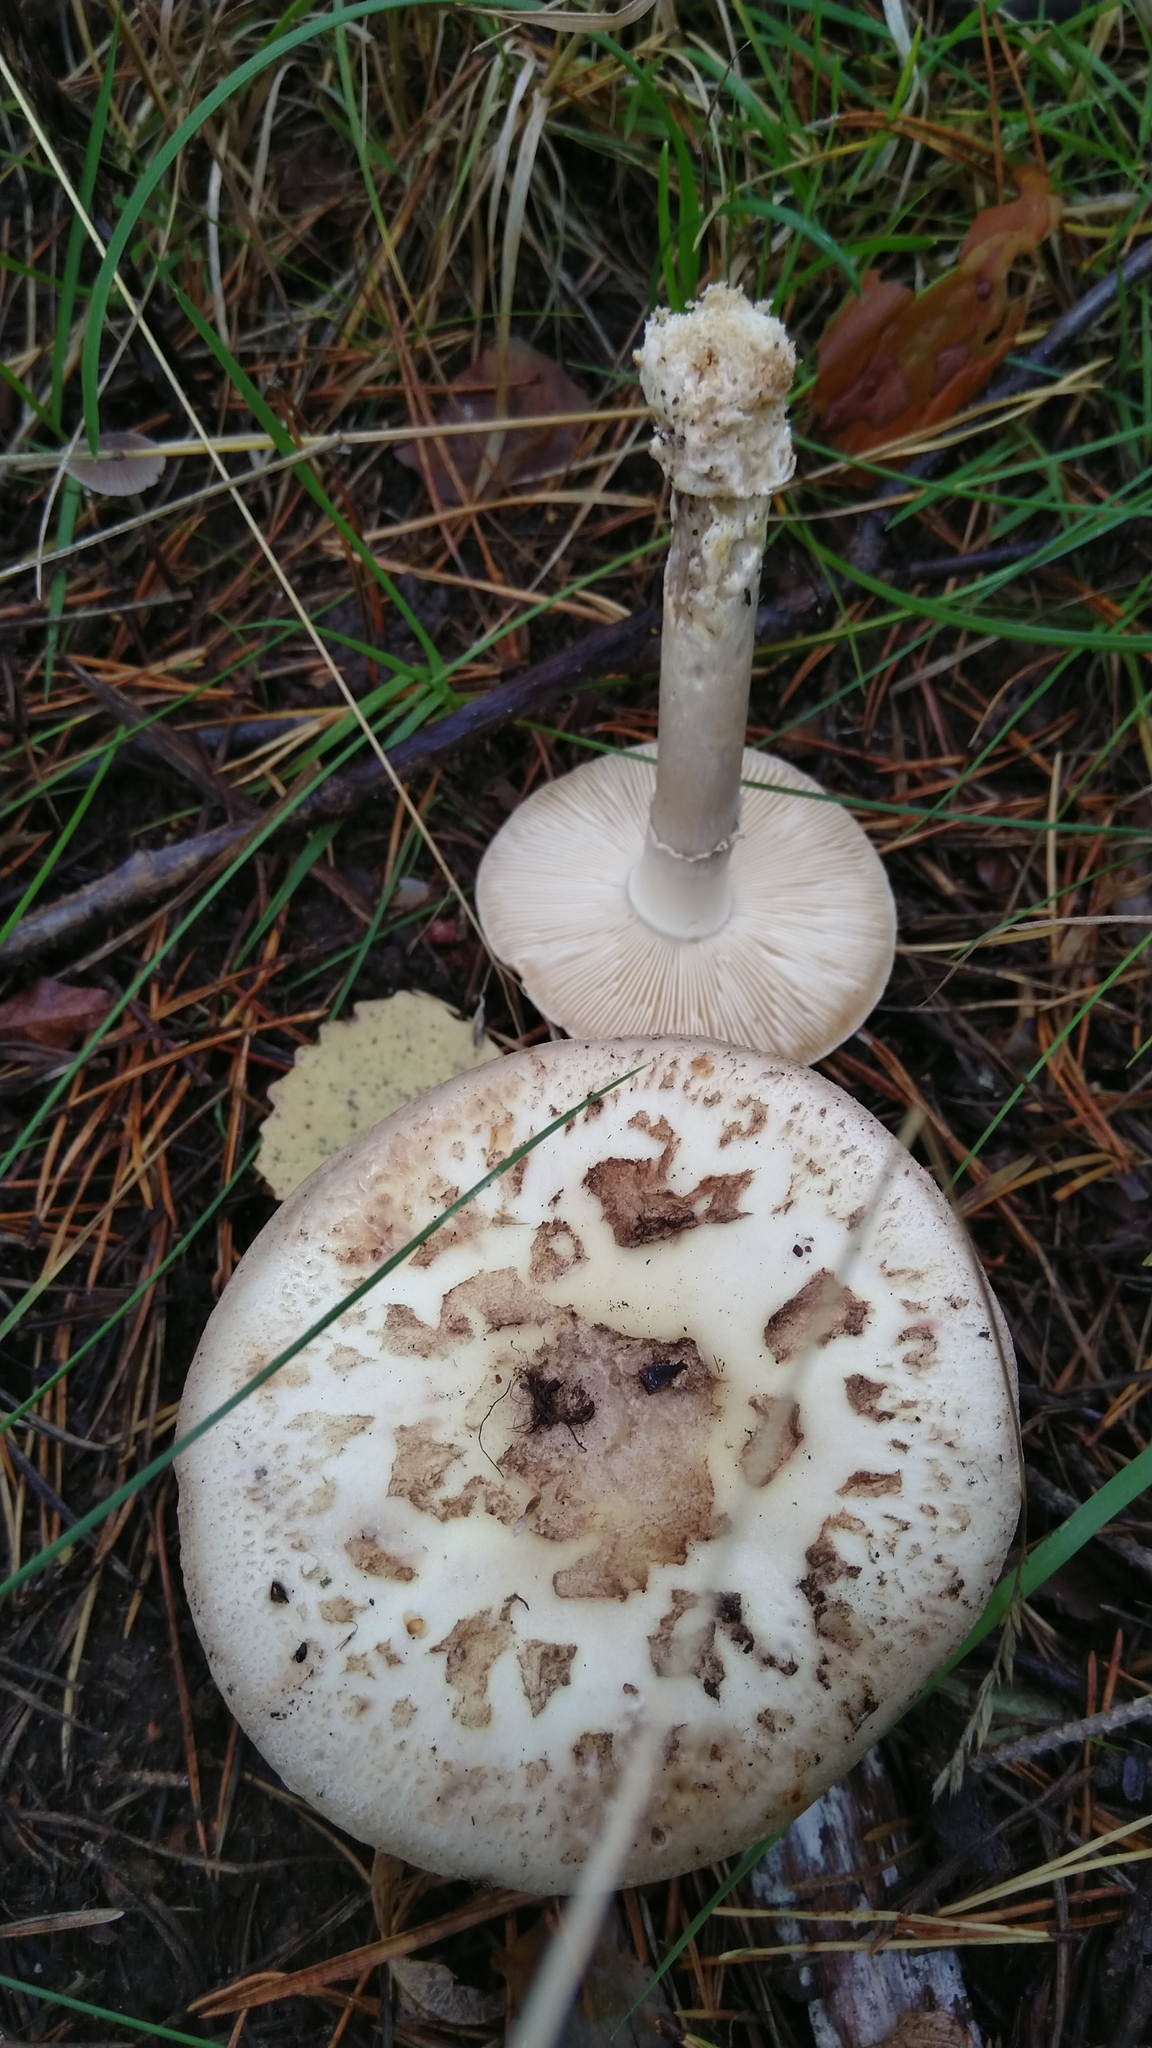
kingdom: Fungi
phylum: Basidiomycota
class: Agaricomycetes
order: Agaricales
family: Amanitaceae
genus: Amanita
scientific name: Amanita citrina
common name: False death-cap
